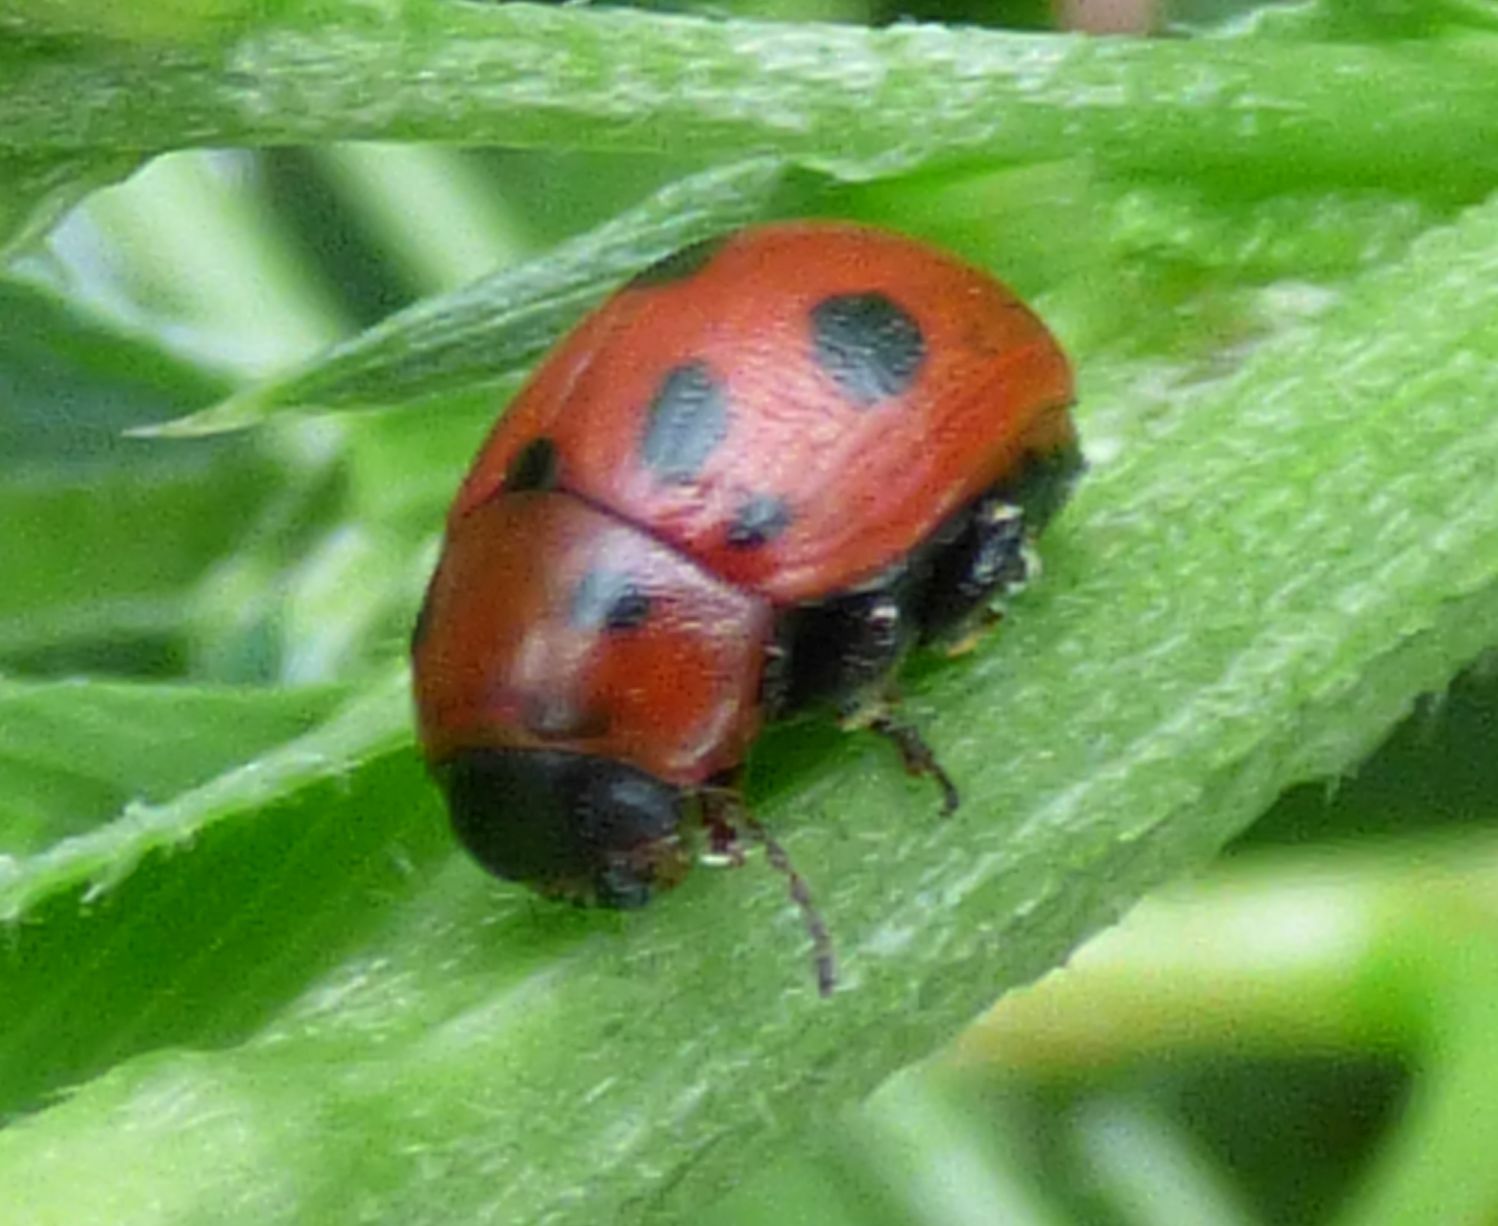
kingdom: Animalia
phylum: Arthropoda
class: Insecta
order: Coleoptera
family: Chrysomelidae
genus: Gonioctena
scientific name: Gonioctena fornicata
